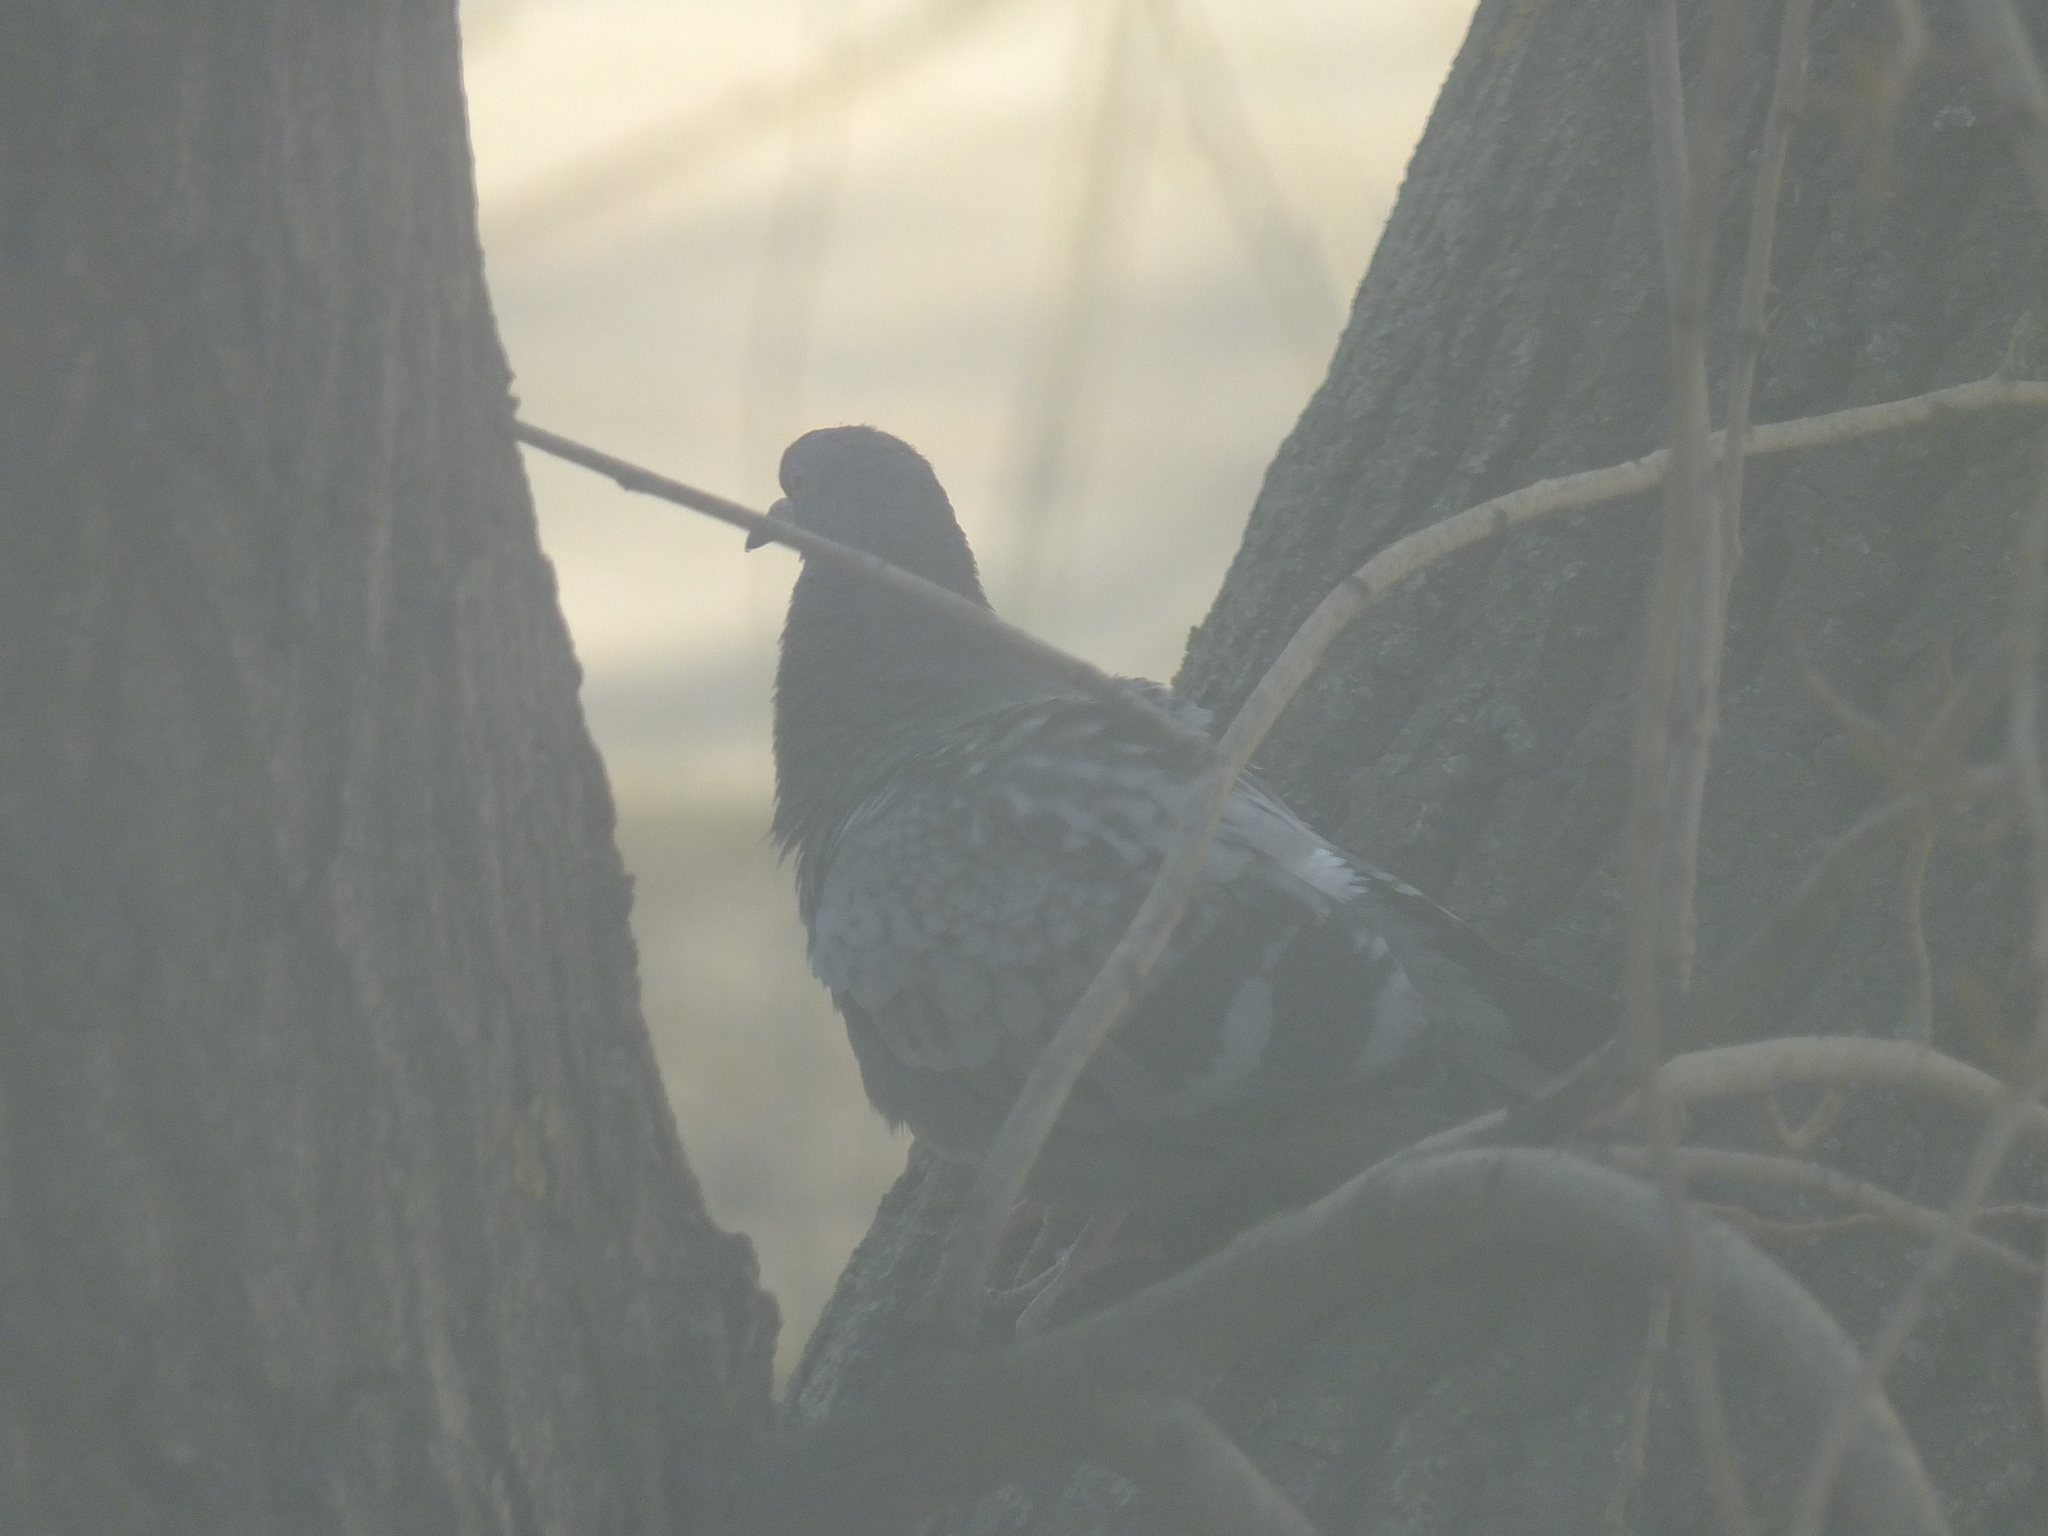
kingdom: Animalia
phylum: Chordata
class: Aves
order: Columbiformes
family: Columbidae
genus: Columba
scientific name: Columba livia
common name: Rock pigeon
